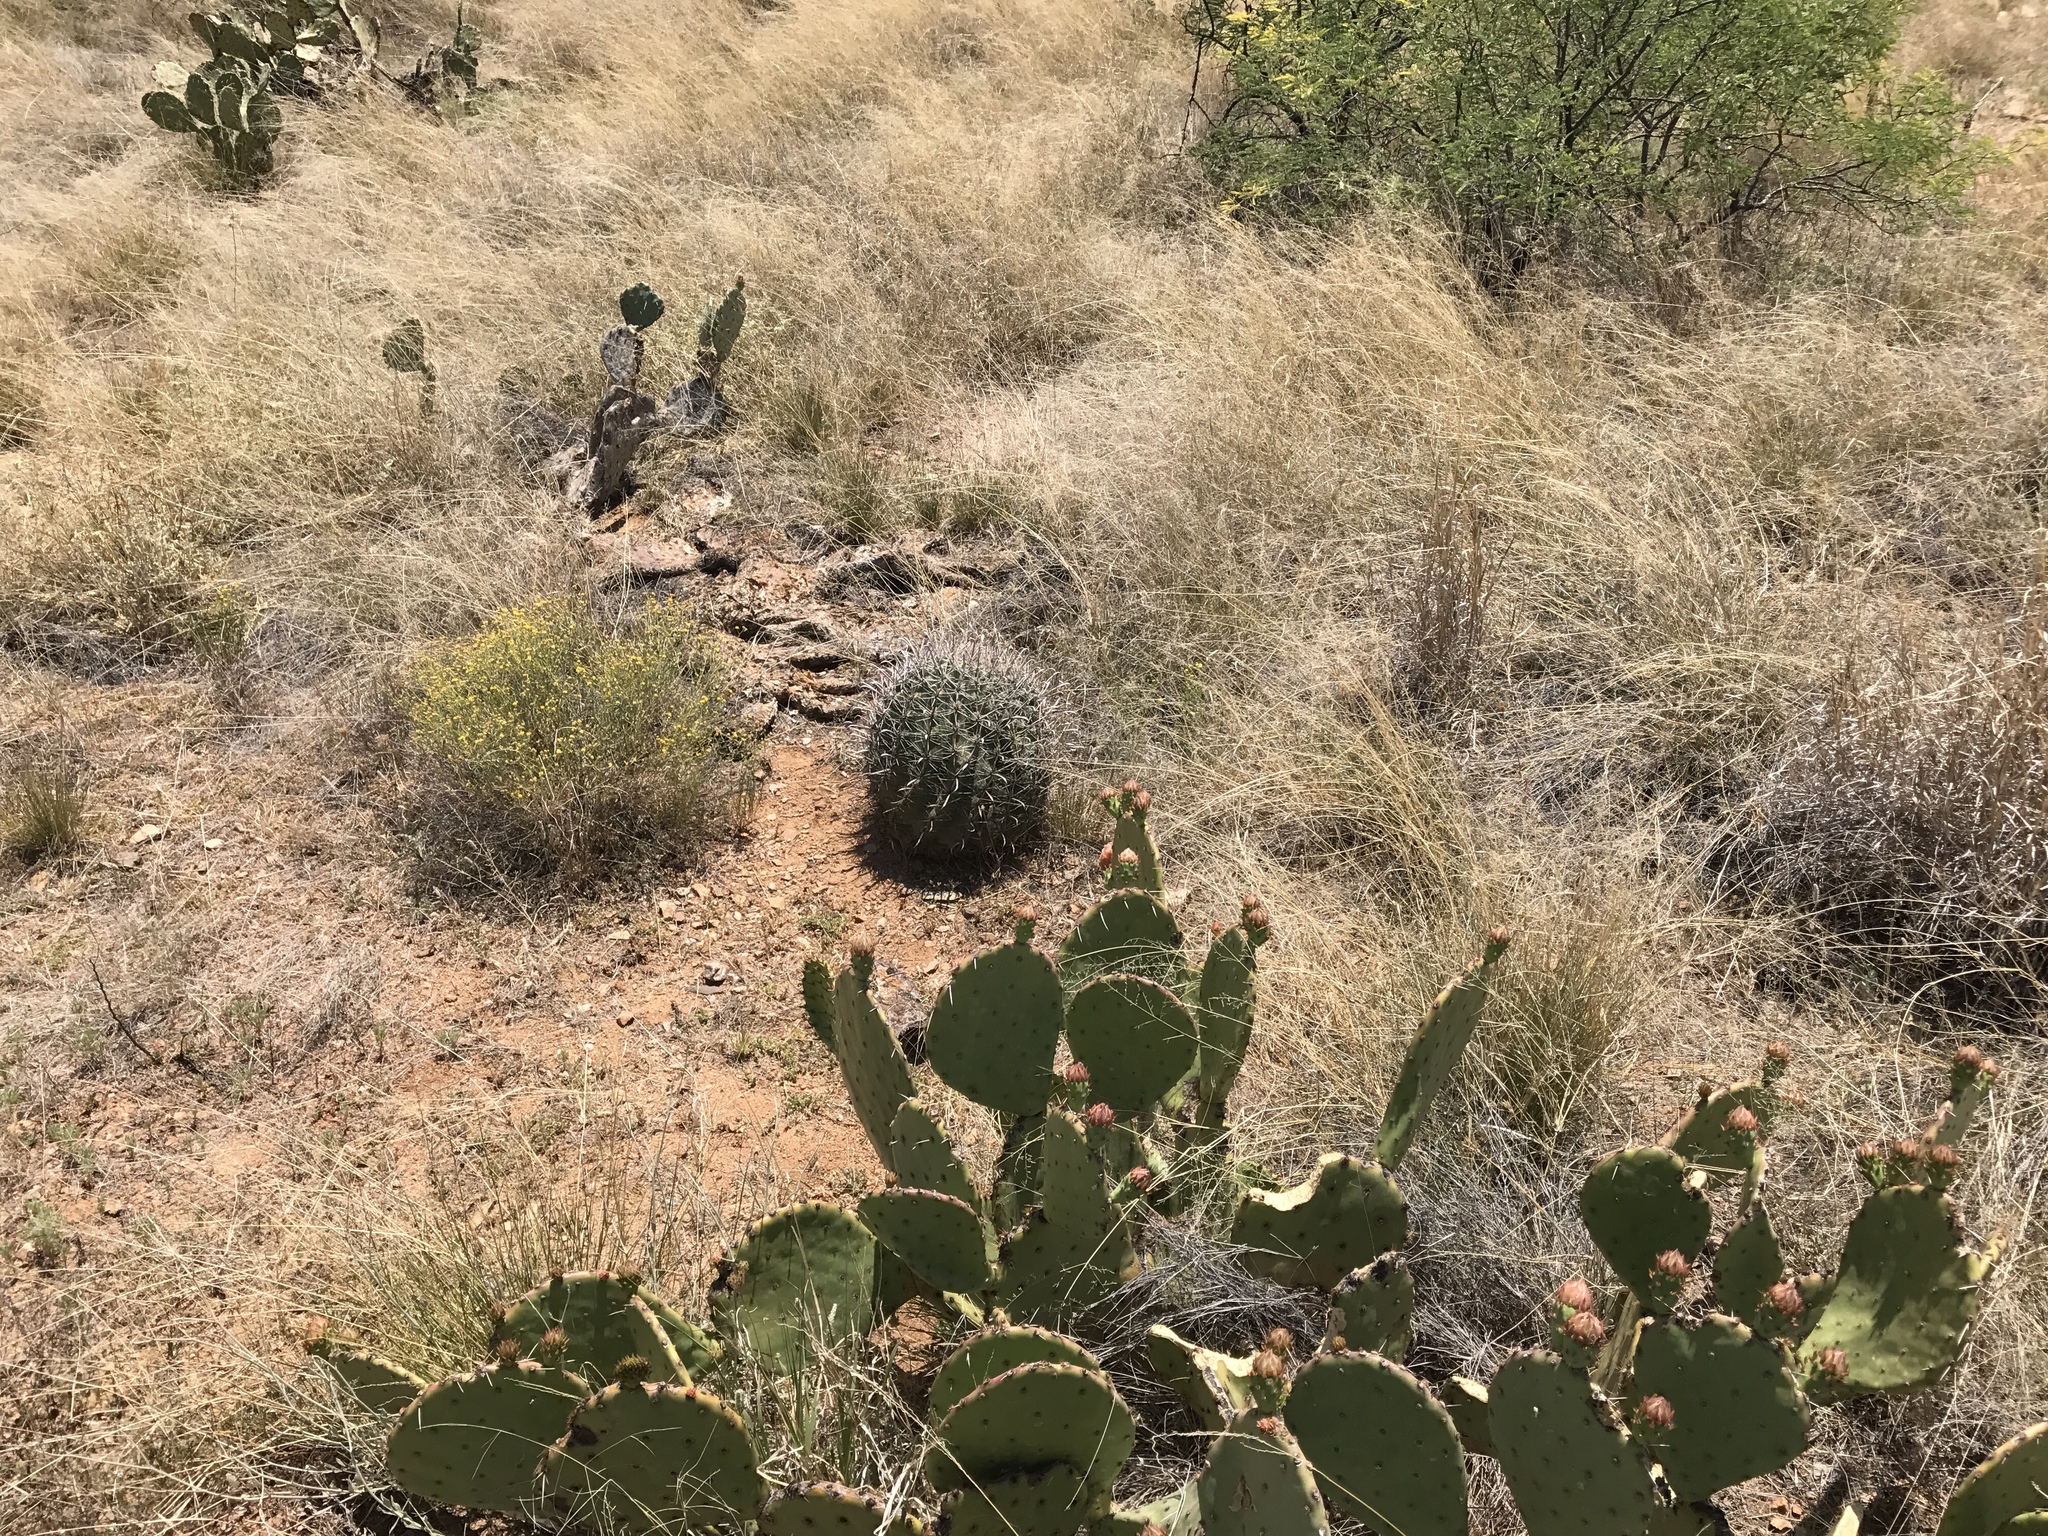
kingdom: Plantae
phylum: Tracheophyta
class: Magnoliopsida
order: Caryophyllales
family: Cactaceae
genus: Ferocactus
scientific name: Ferocactus wislizeni
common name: Candy barrel cactus
